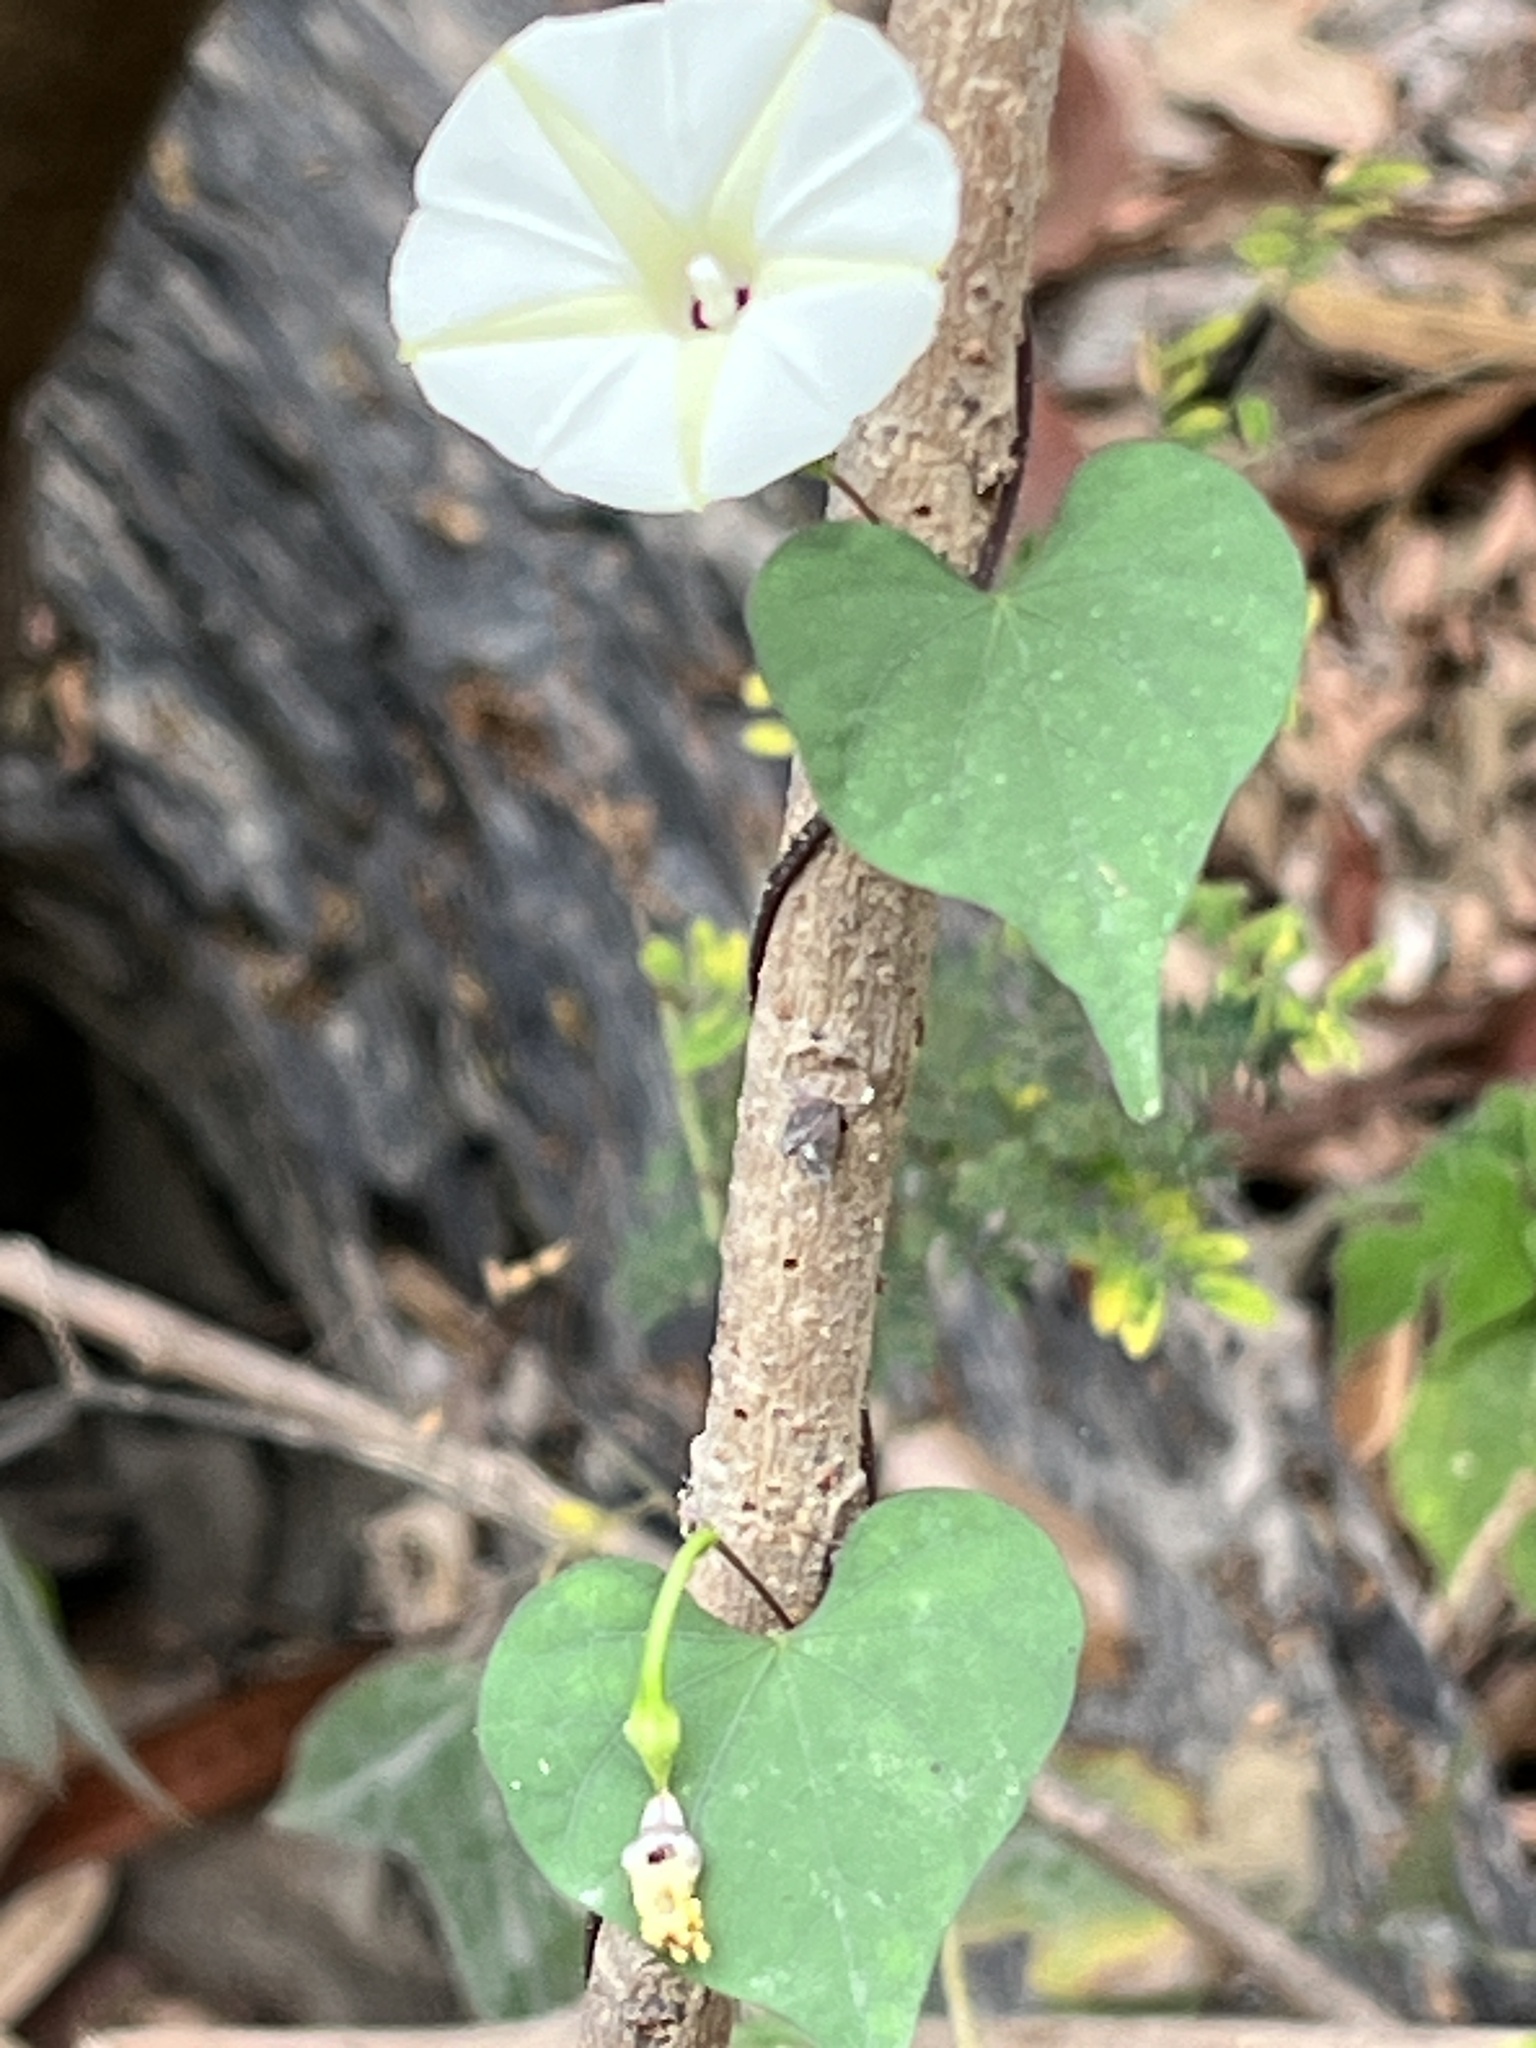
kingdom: Plantae
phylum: Tracheophyta
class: Magnoliopsida
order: Solanales
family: Convolvulaceae
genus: Ipomoea
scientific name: Ipomoea obscura
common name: Obscure morning-glory
